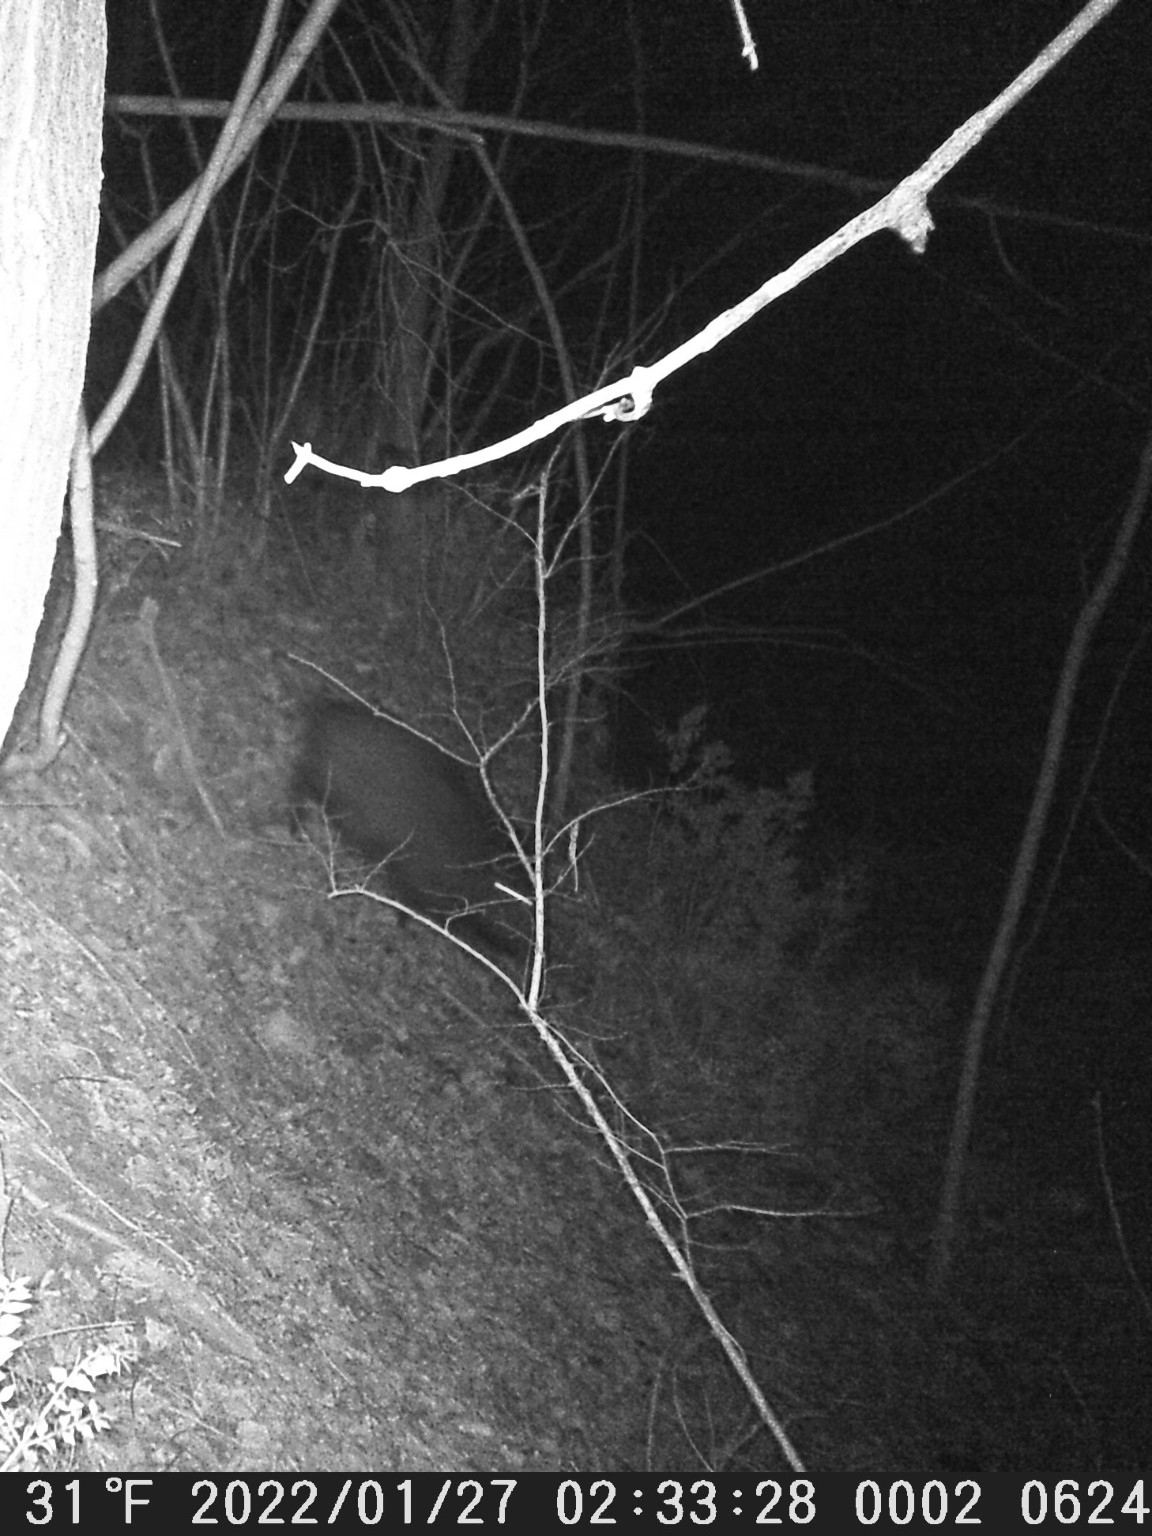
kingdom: Animalia
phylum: Chordata
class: Mammalia
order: Artiodactyla
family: Suidae
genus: Sus
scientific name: Sus scrofa
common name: Wild boar
